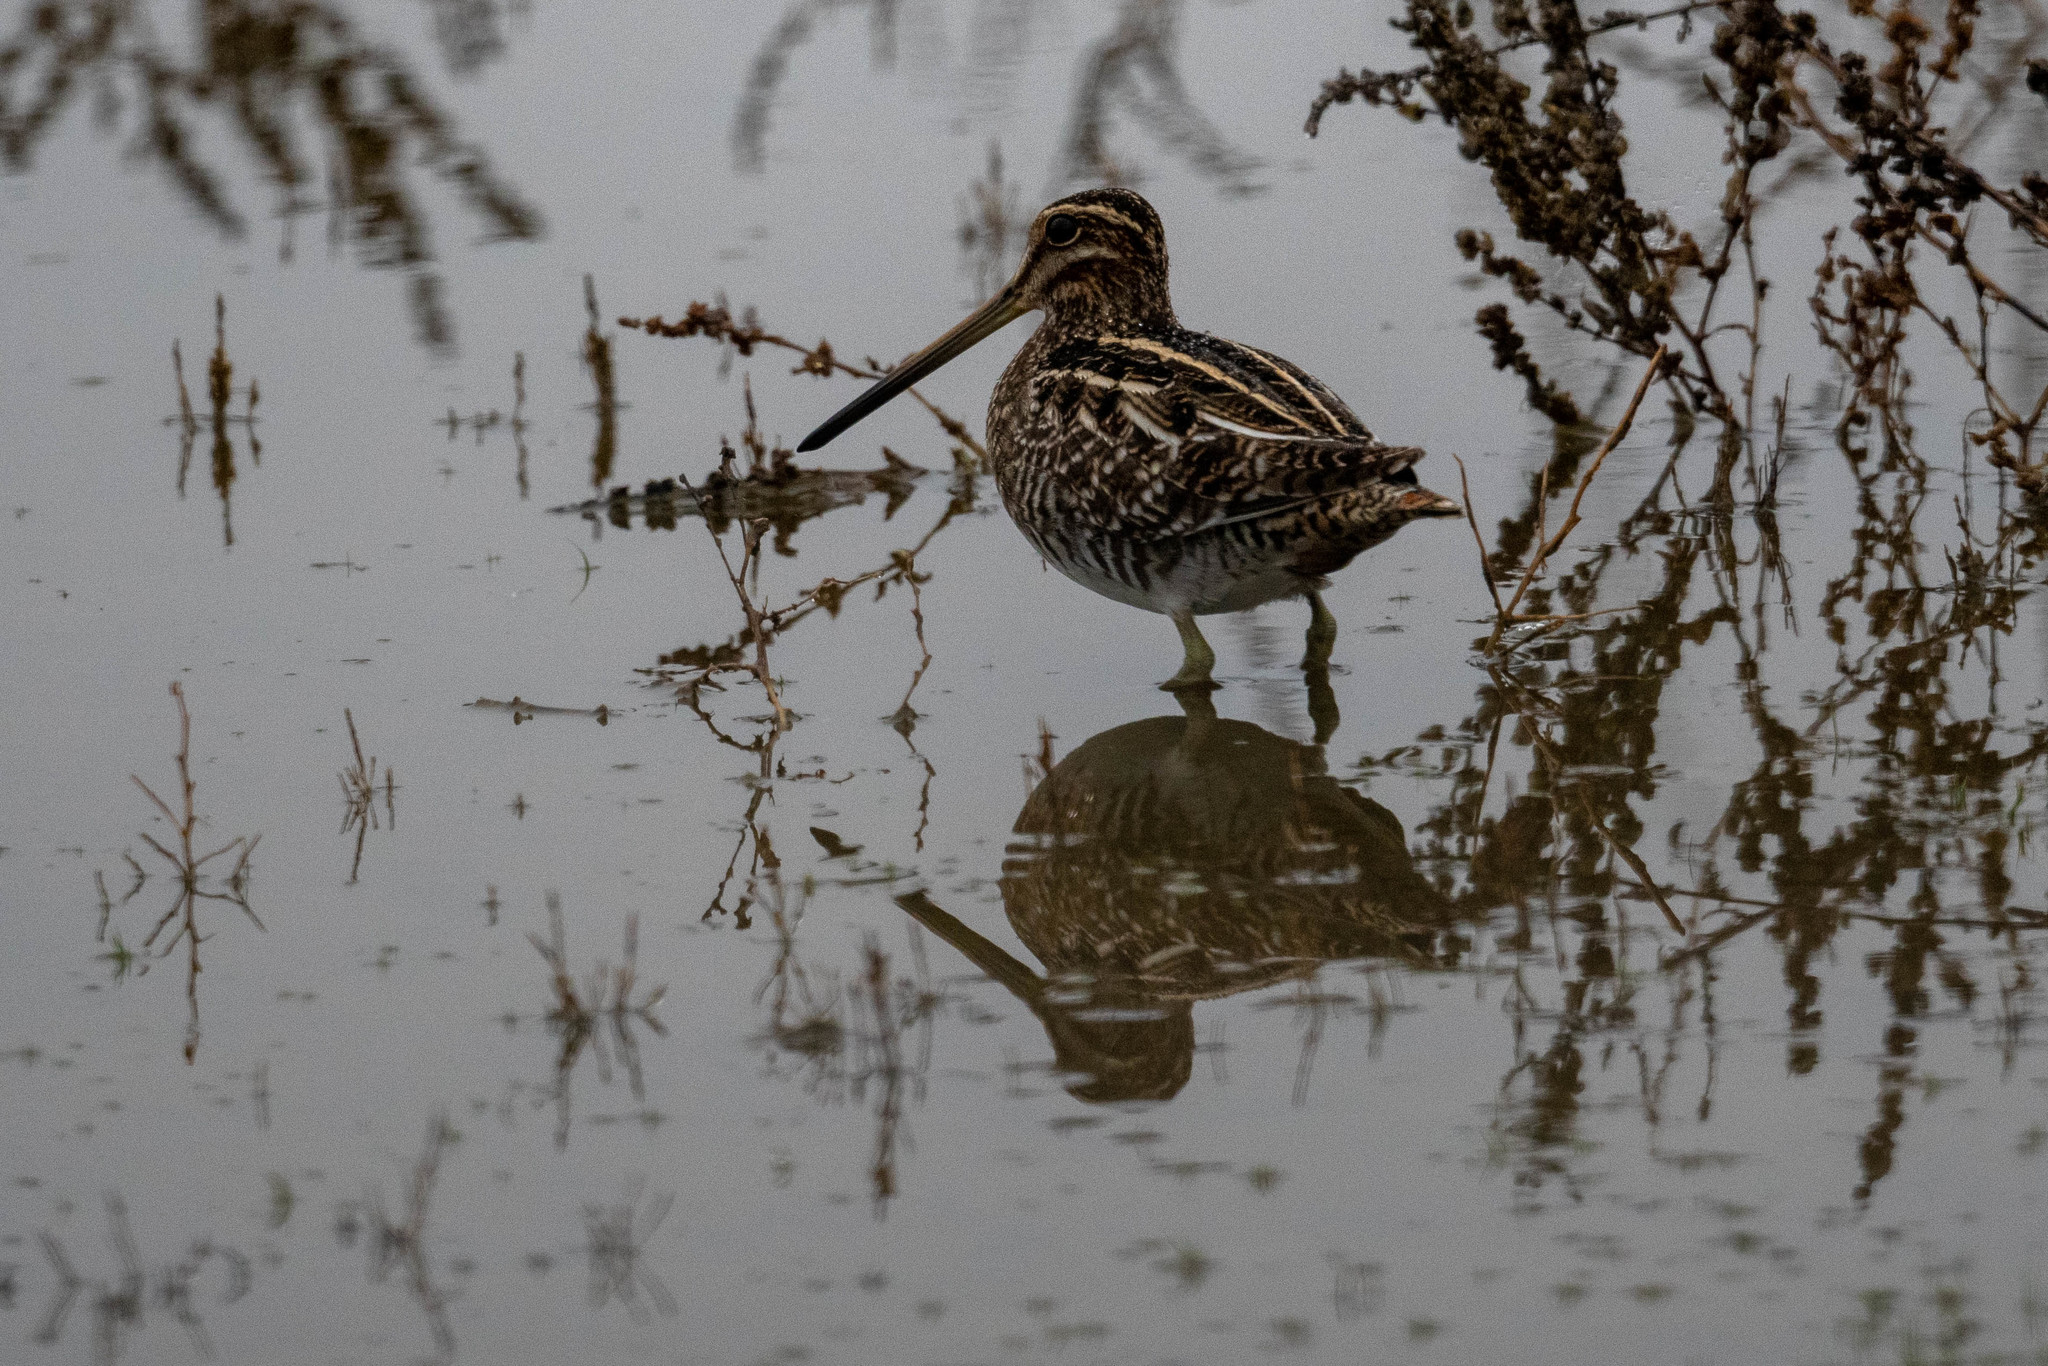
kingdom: Animalia
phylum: Chordata
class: Aves
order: Charadriiformes
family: Scolopacidae
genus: Gallinago
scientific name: Gallinago delicata
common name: Wilson's snipe
